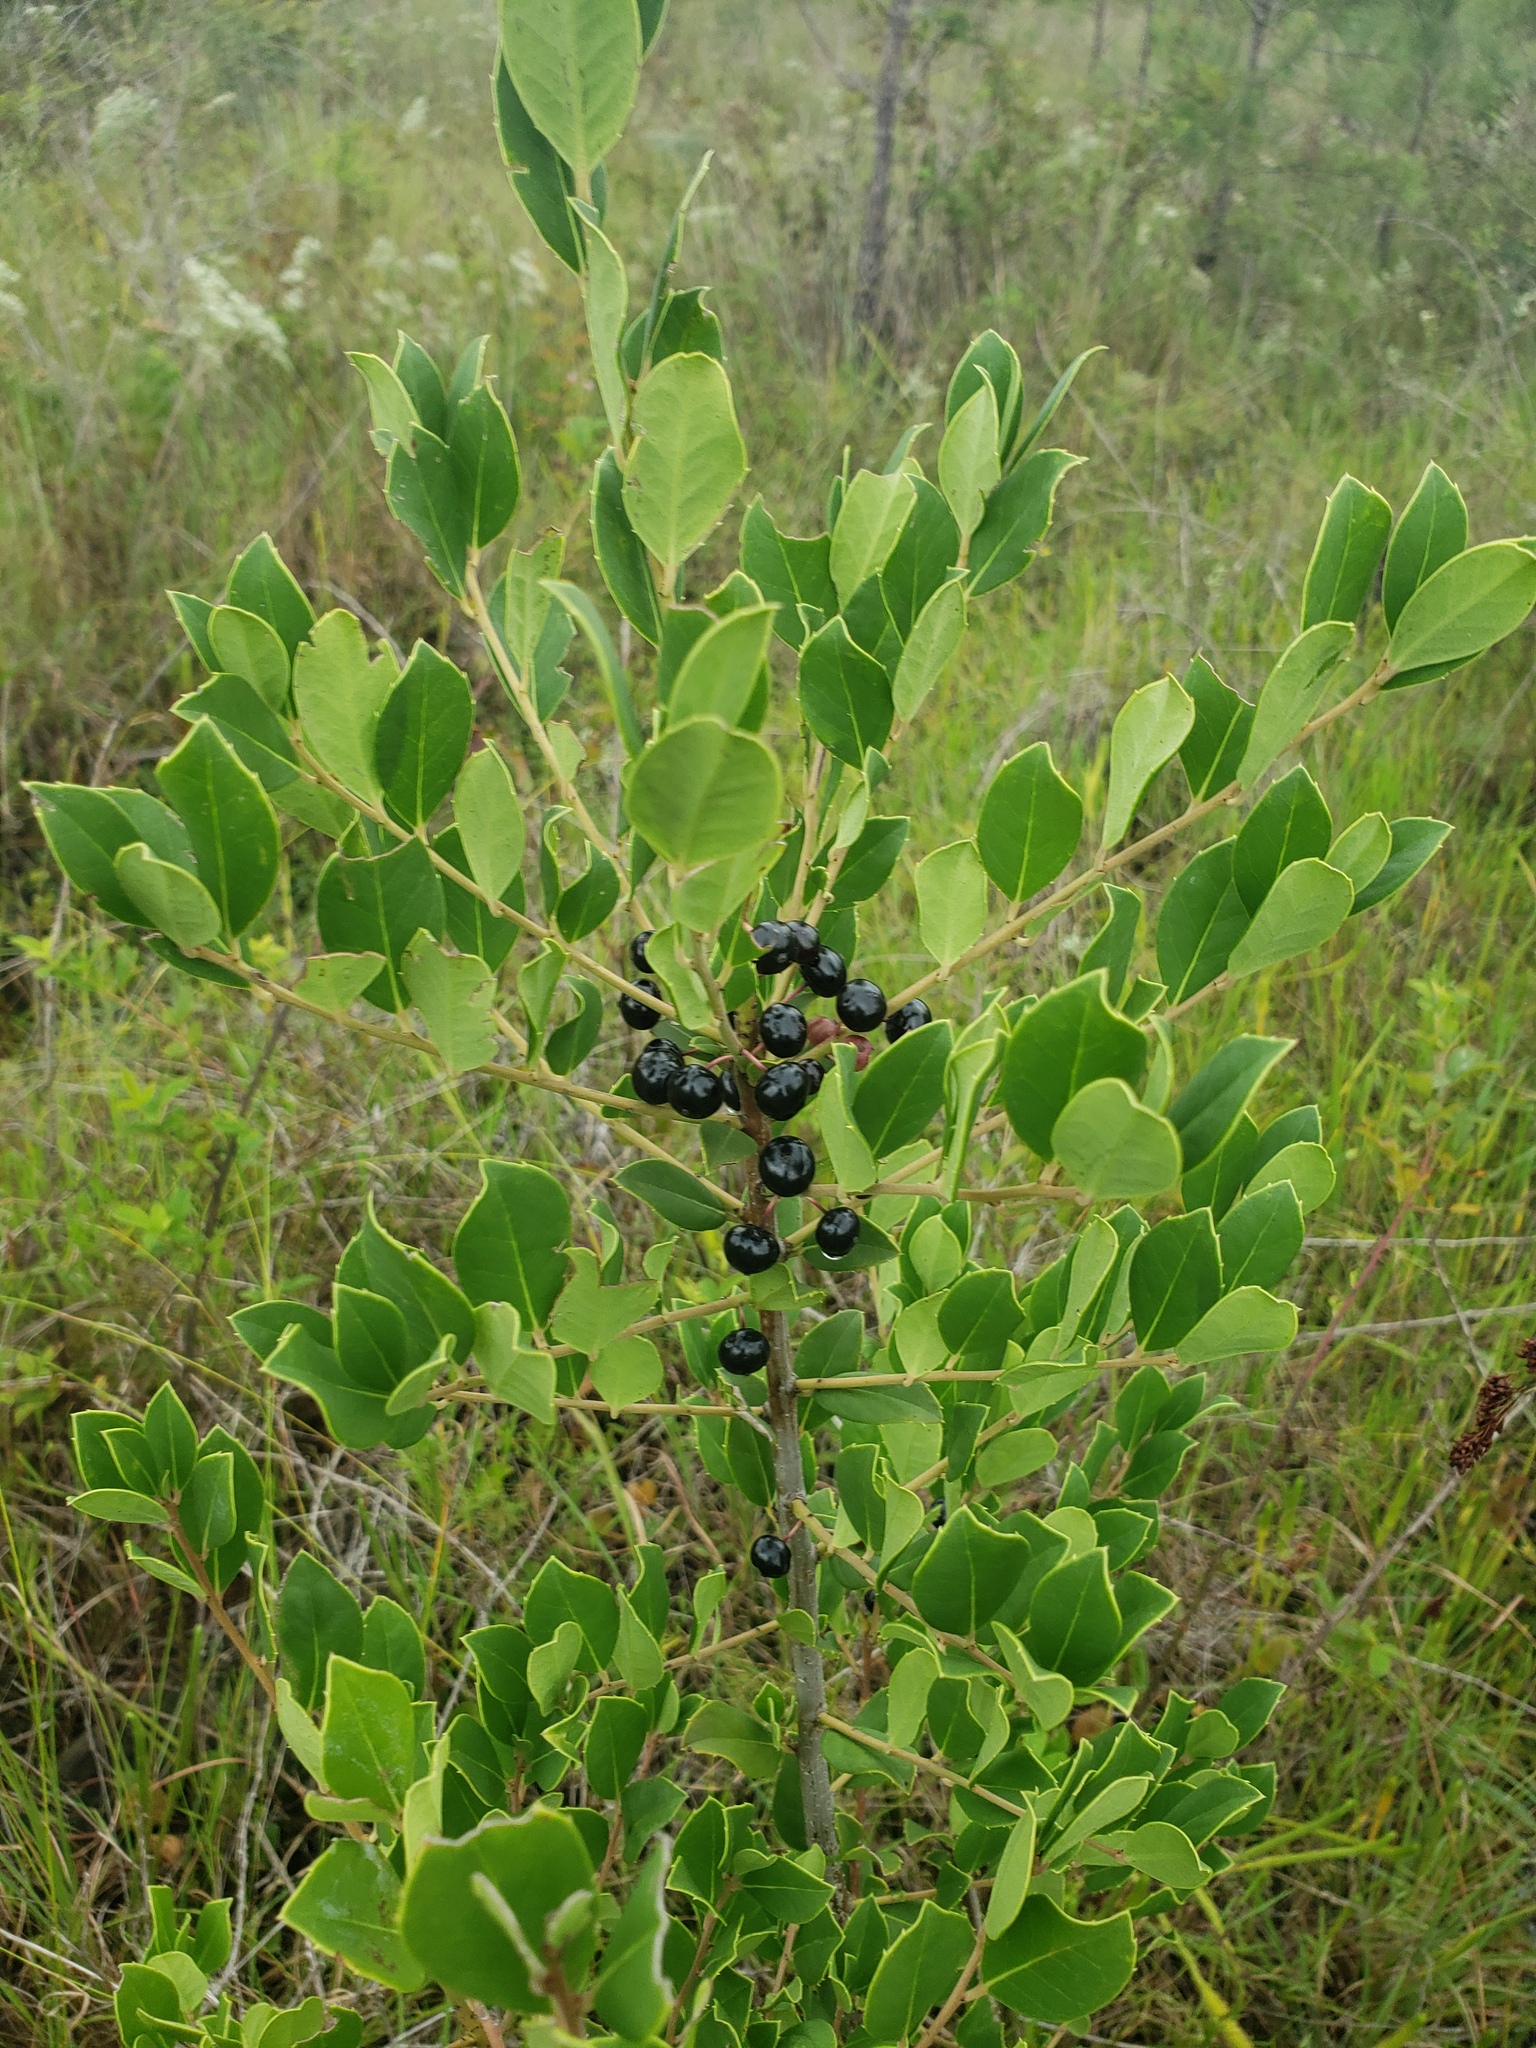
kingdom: Plantae
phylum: Tracheophyta
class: Magnoliopsida
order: Aquifoliales
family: Aquifoliaceae
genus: Ilex
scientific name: Ilex coriacea
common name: Sweet gallberry
